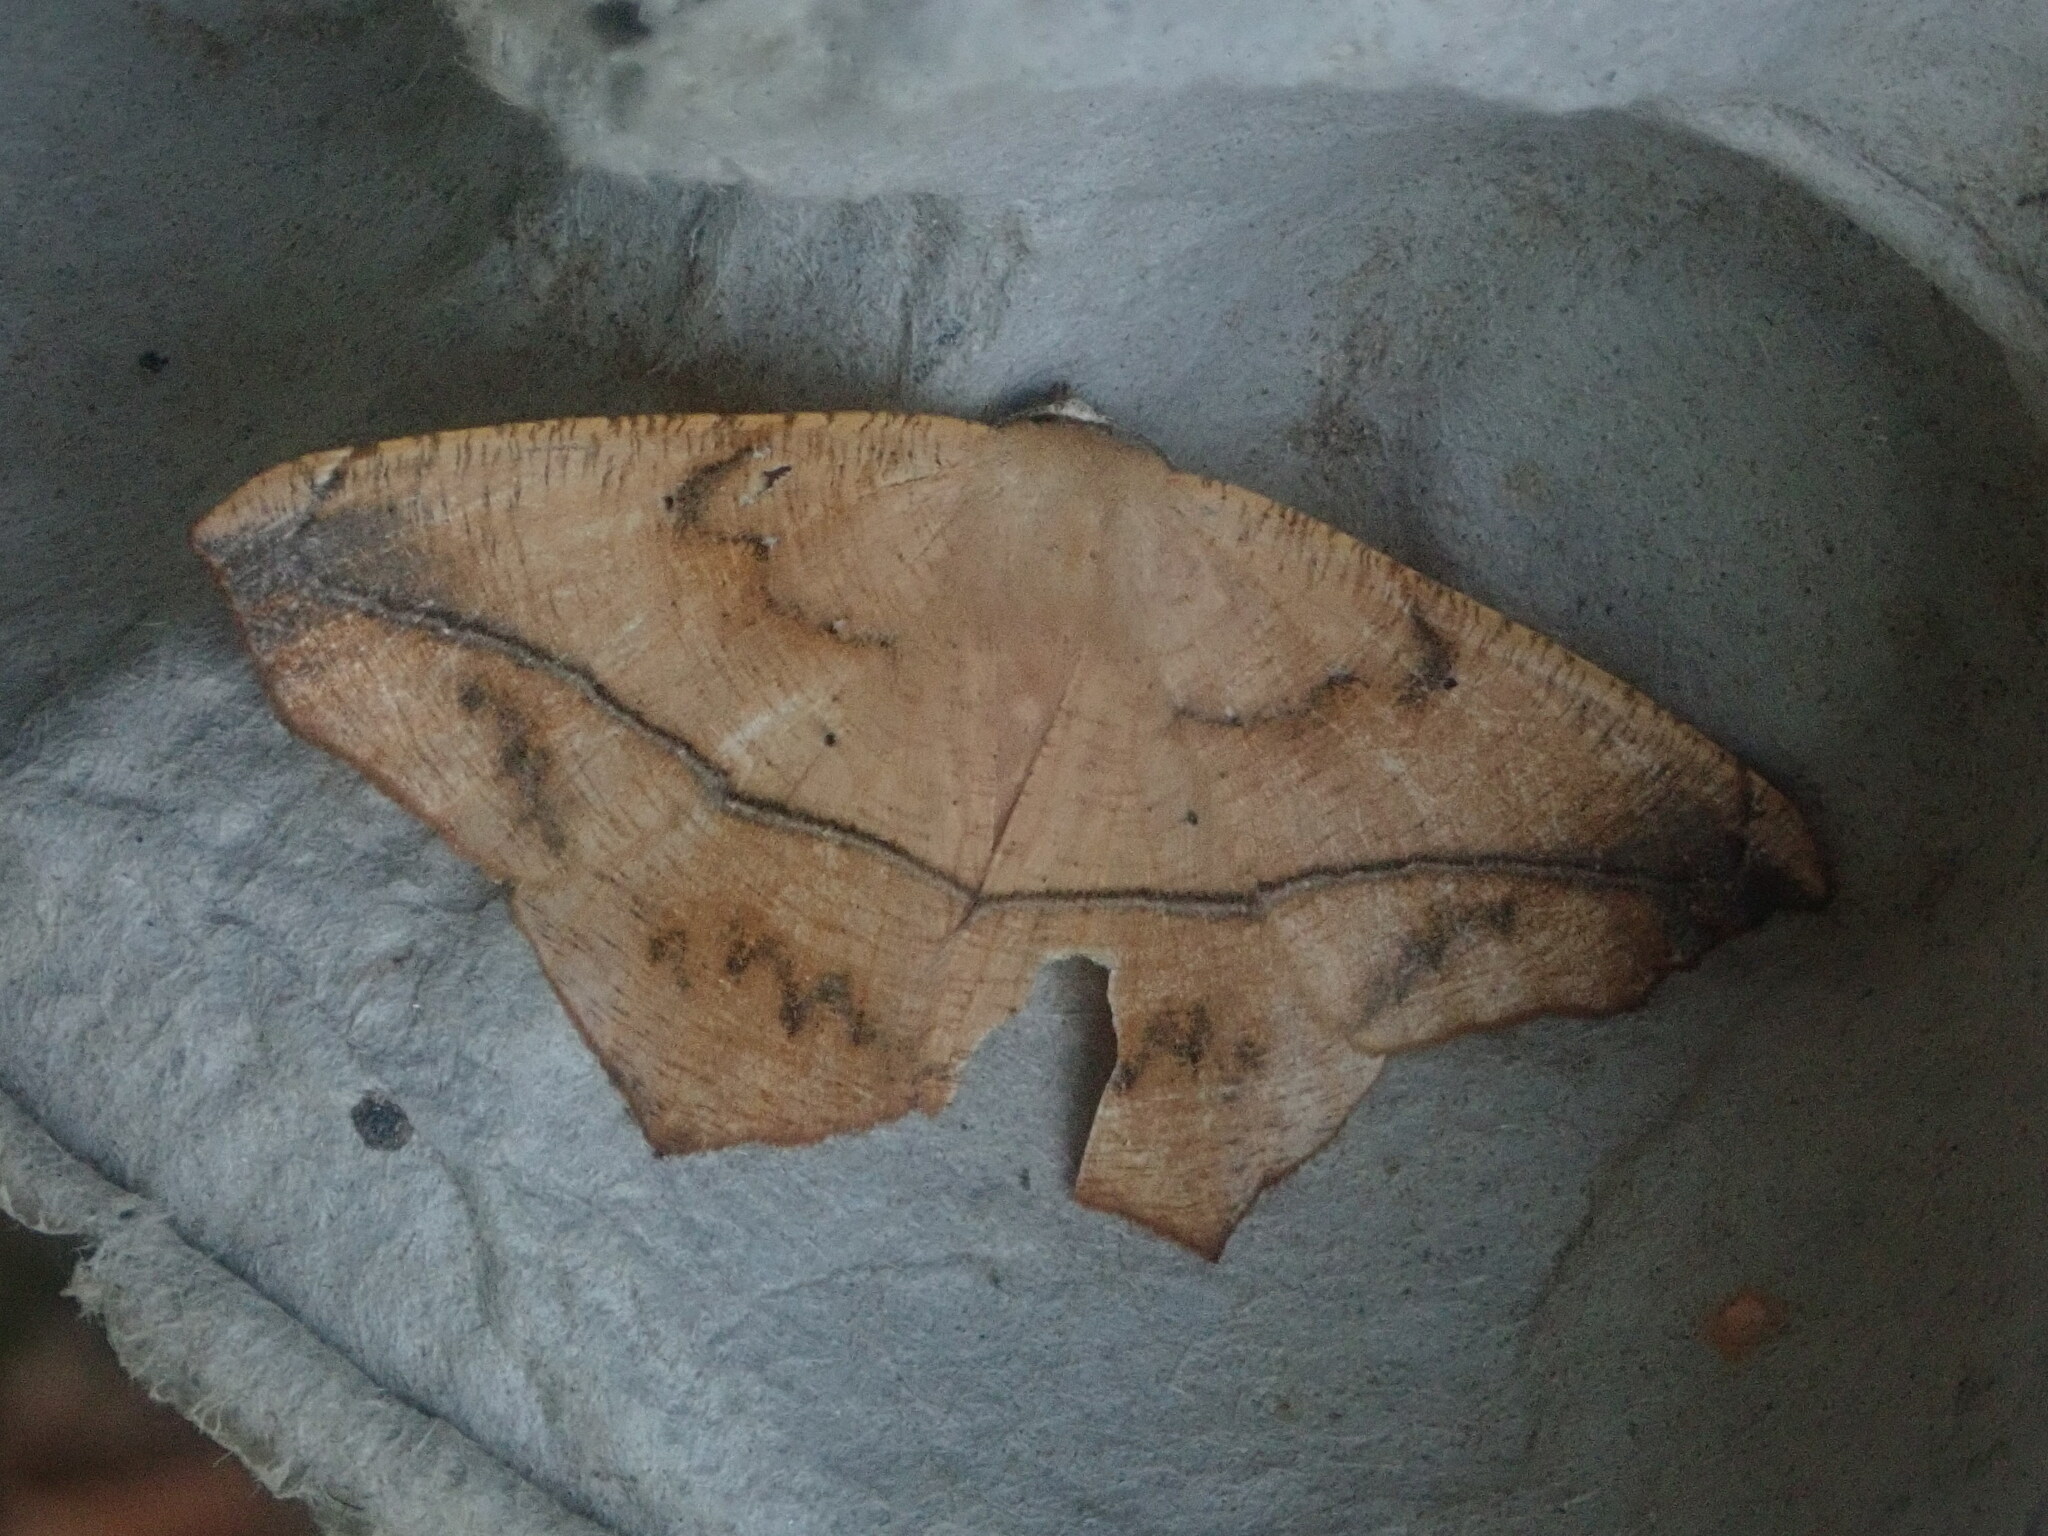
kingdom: Animalia
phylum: Arthropoda
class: Insecta
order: Lepidoptera
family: Geometridae
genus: Prochoerodes
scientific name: Prochoerodes lineola
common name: Large maple spanworm
